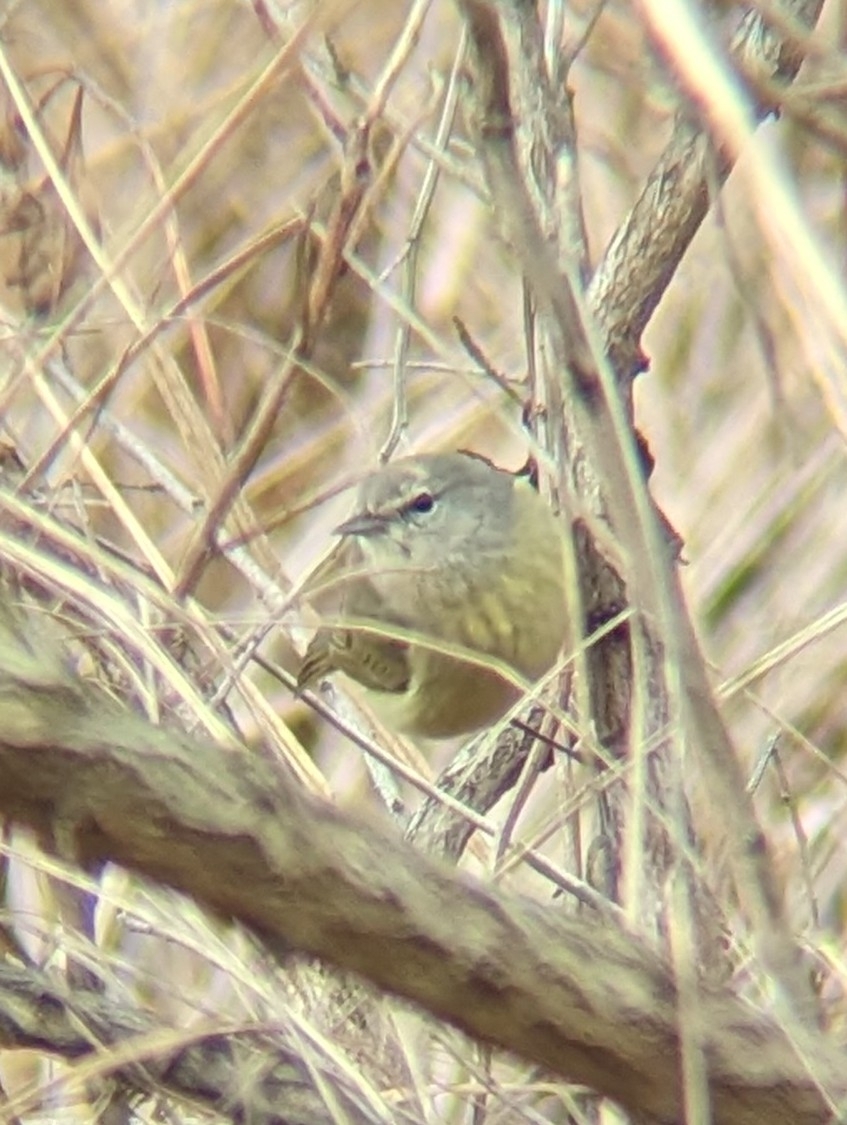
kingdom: Animalia
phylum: Chordata
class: Aves
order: Passeriformes
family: Parulidae
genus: Leiothlypis
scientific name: Leiothlypis celata
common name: Orange-crowned warbler
